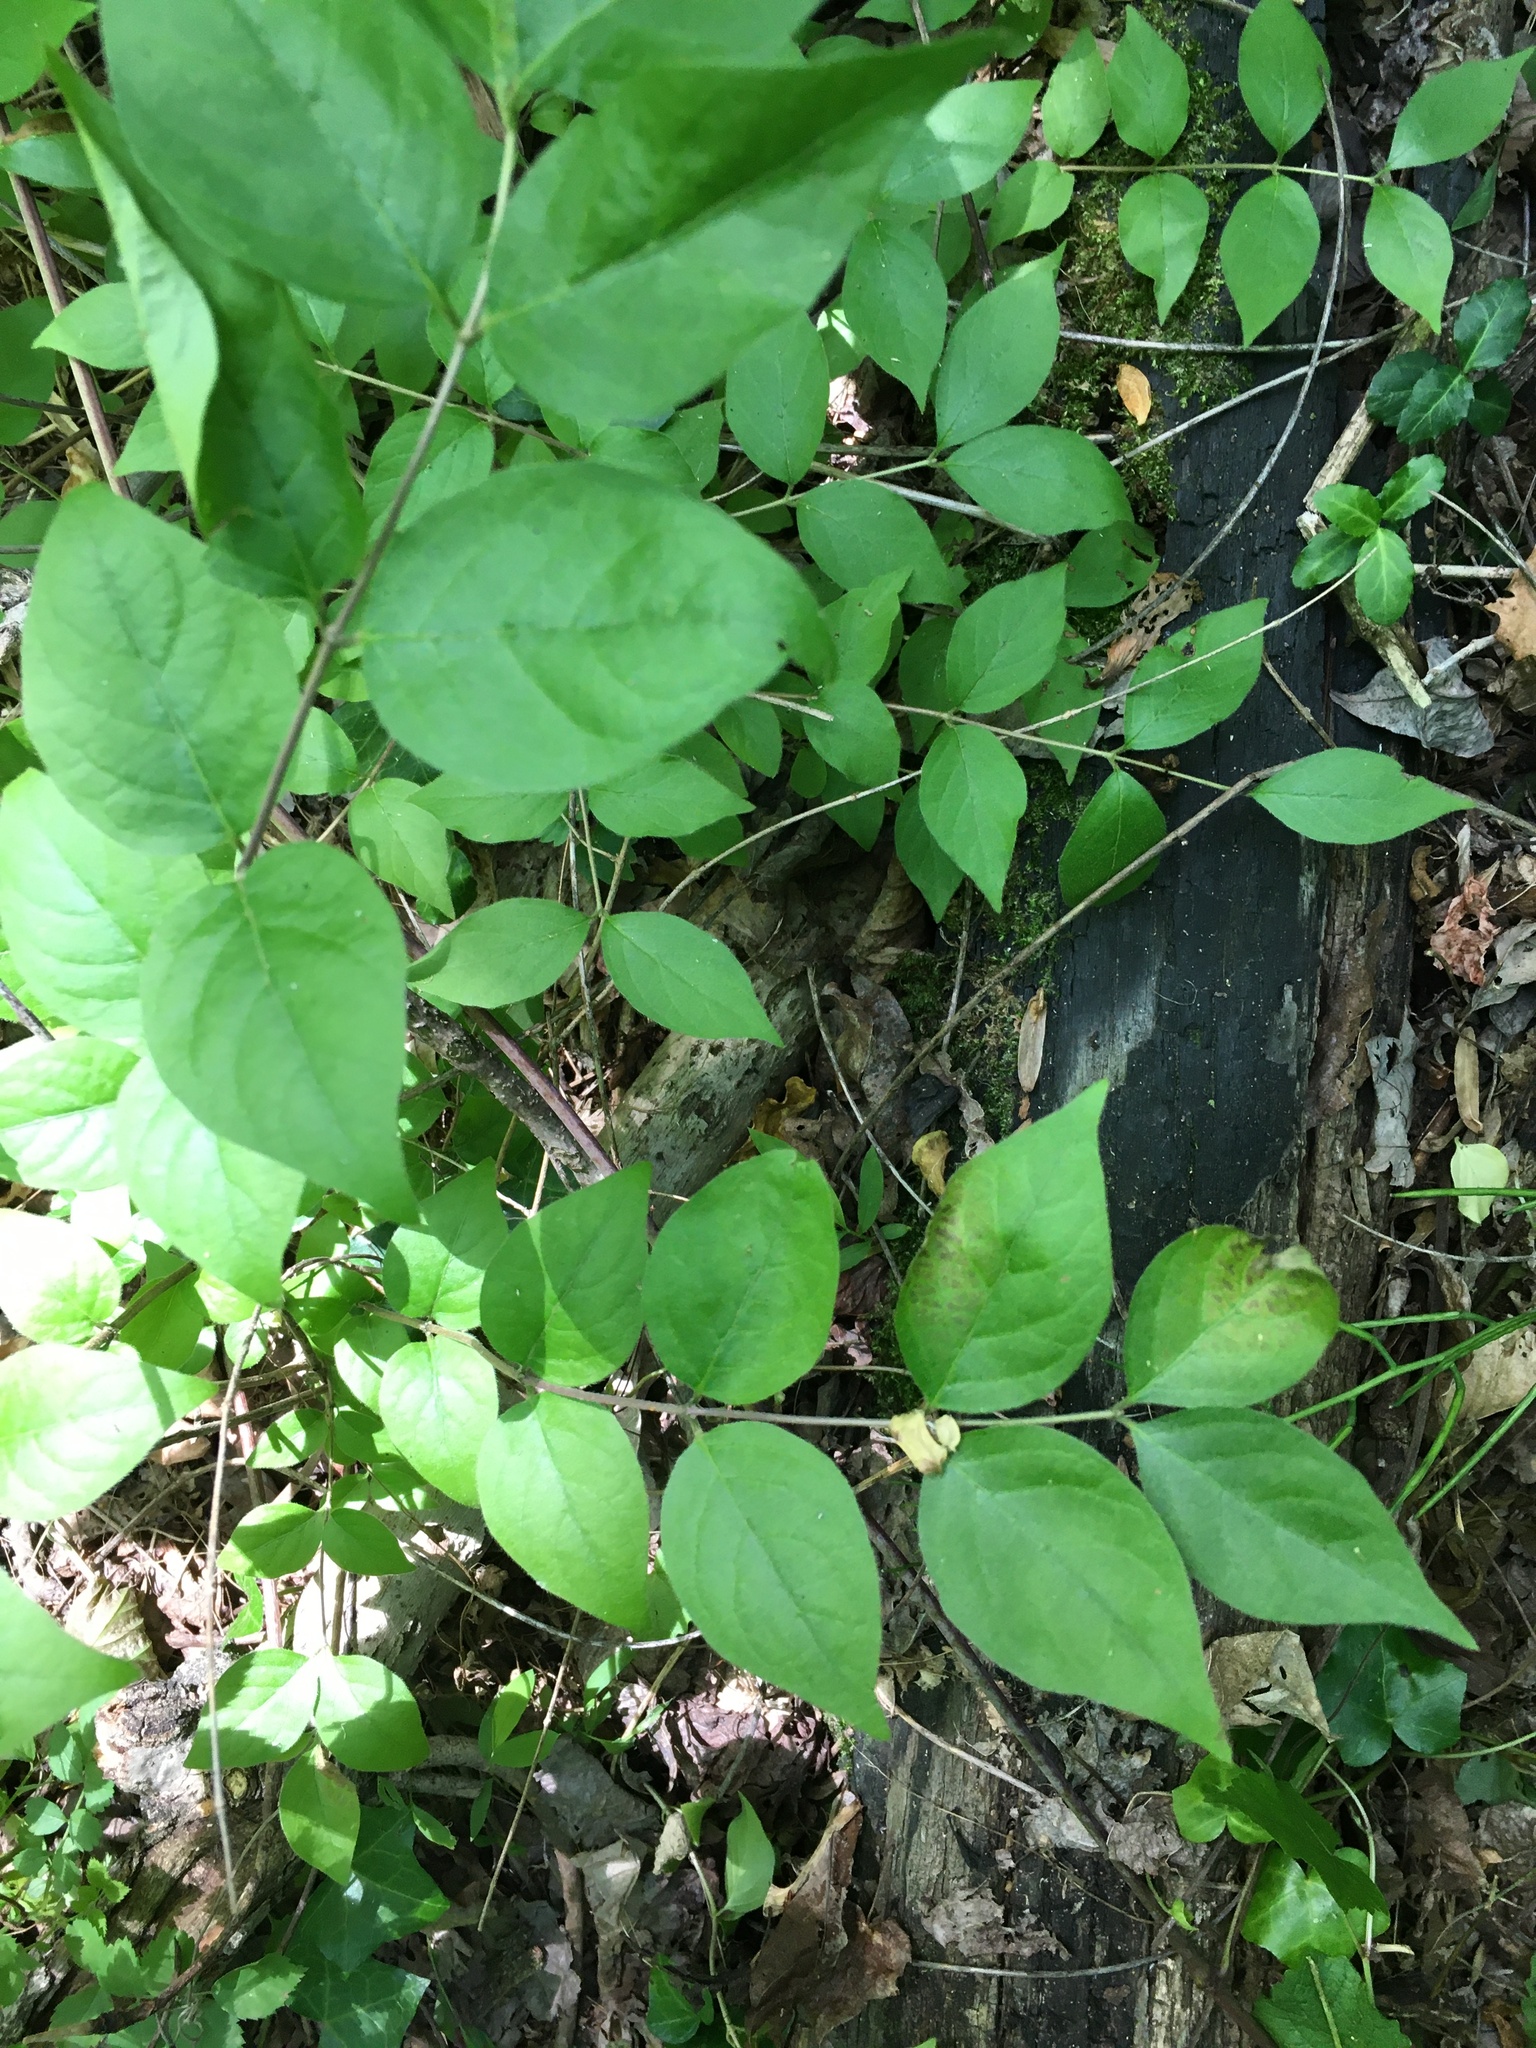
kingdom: Plantae
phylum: Tracheophyta
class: Magnoliopsida
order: Dipsacales
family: Caprifoliaceae
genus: Lonicera
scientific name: Lonicera maackii
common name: Amur honeysuckle
